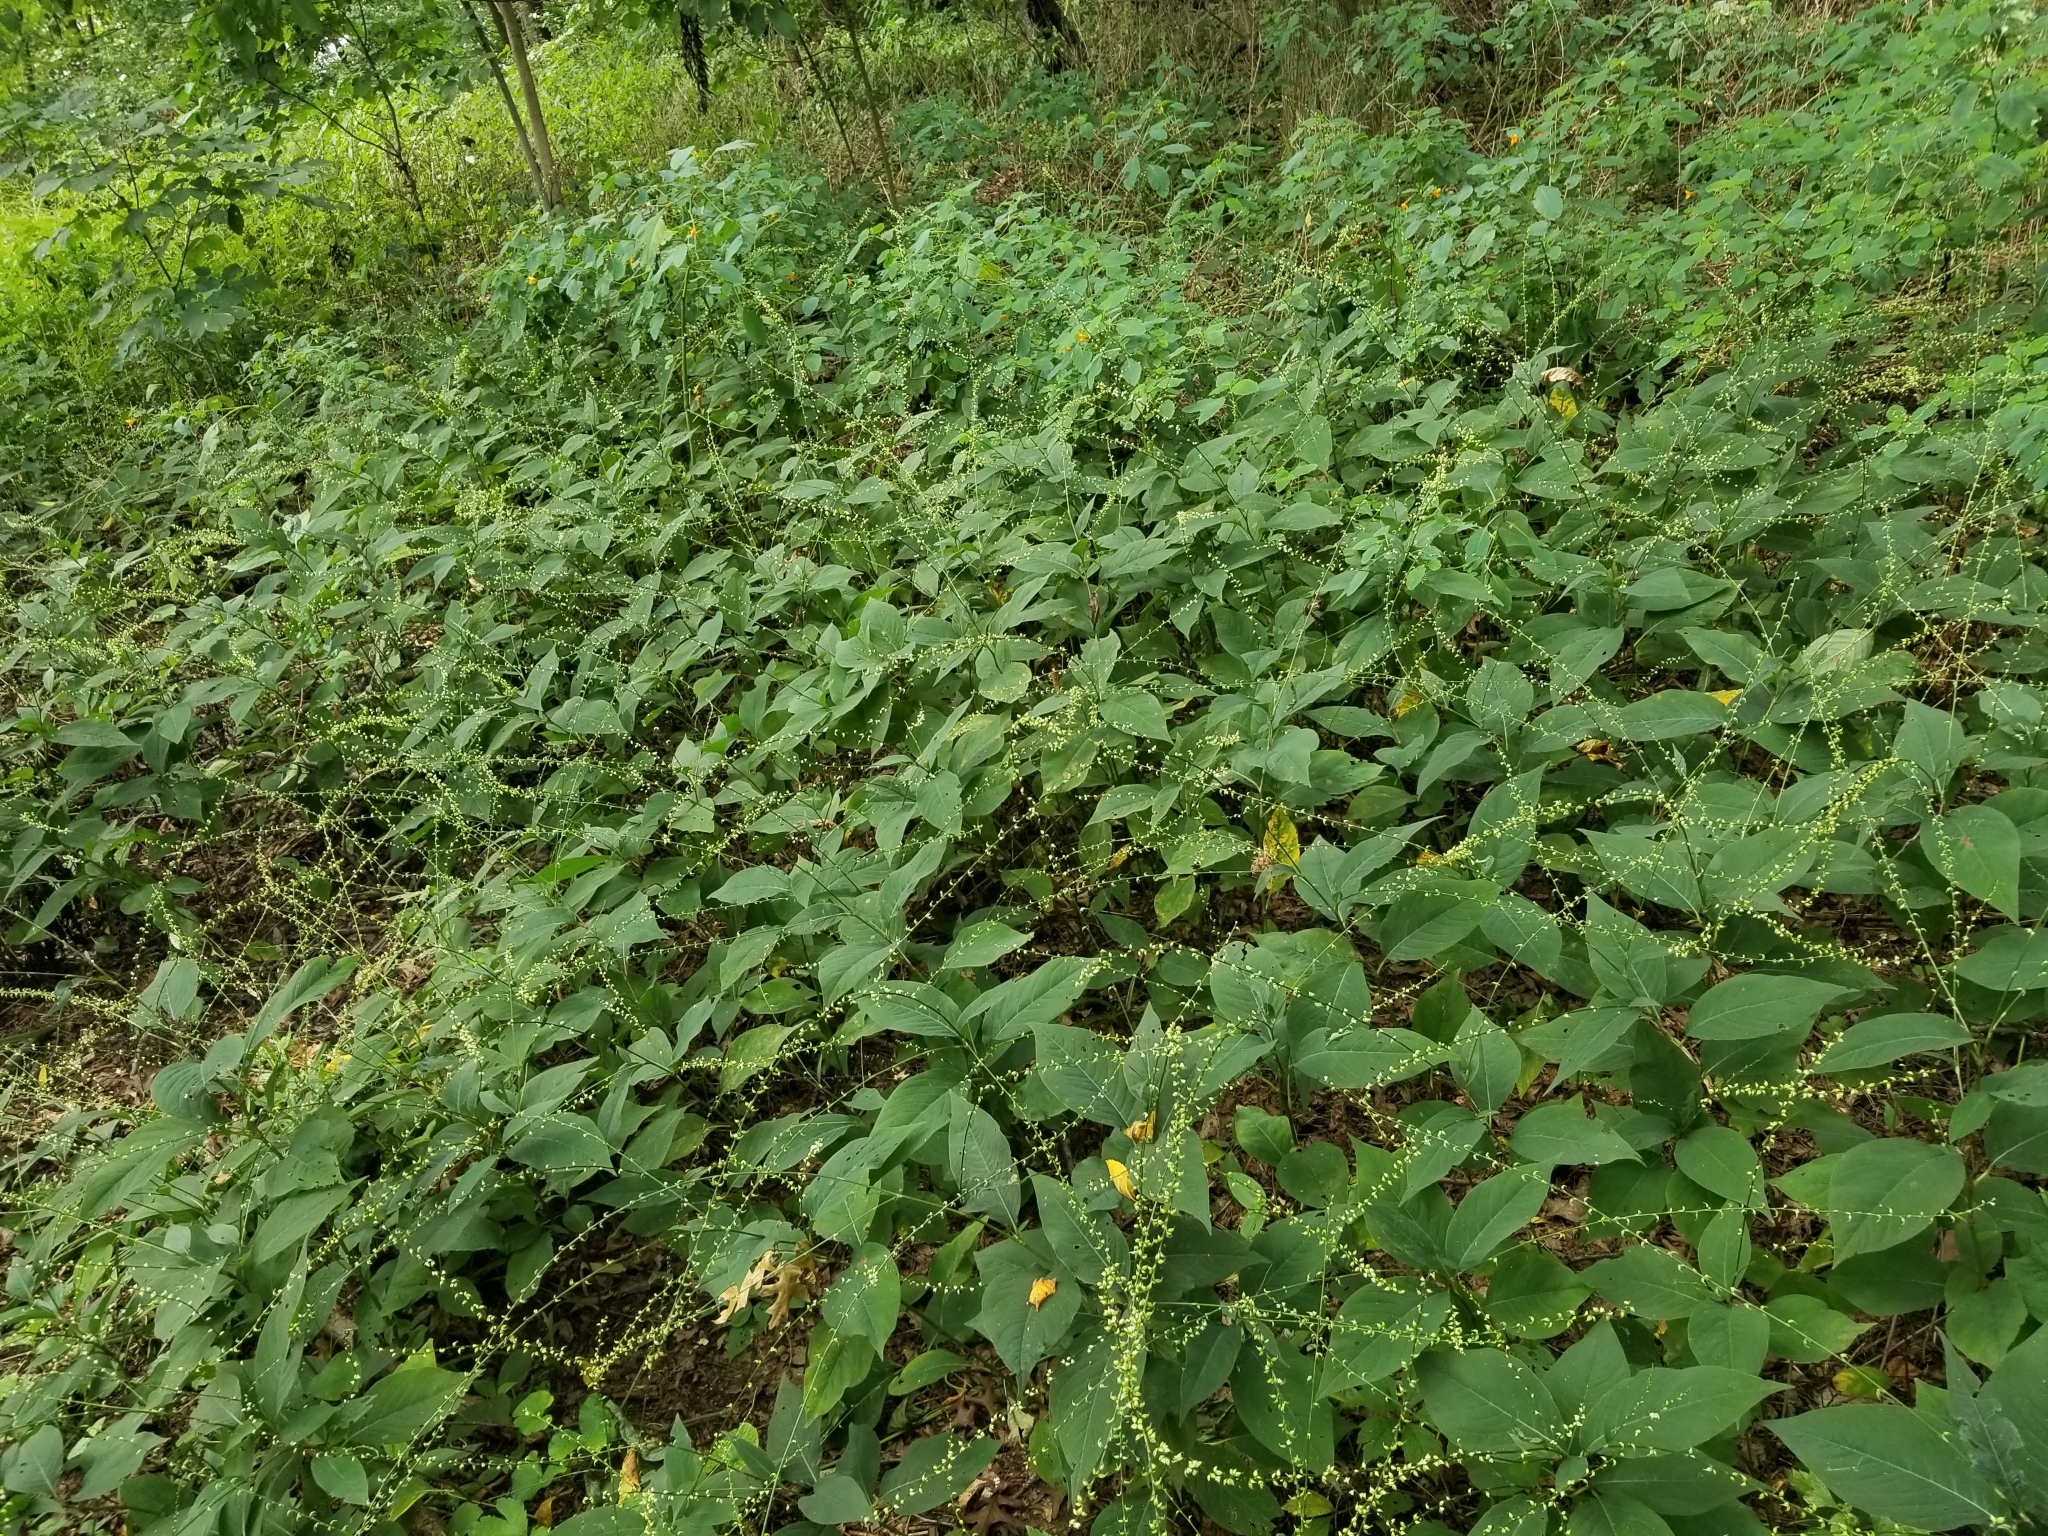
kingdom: Plantae
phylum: Tracheophyta
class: Magnoliopsida
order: Caryophyllales
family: Polygonaceae
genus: Persicaria
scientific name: Persicaria virginiana
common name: Jumpseed
